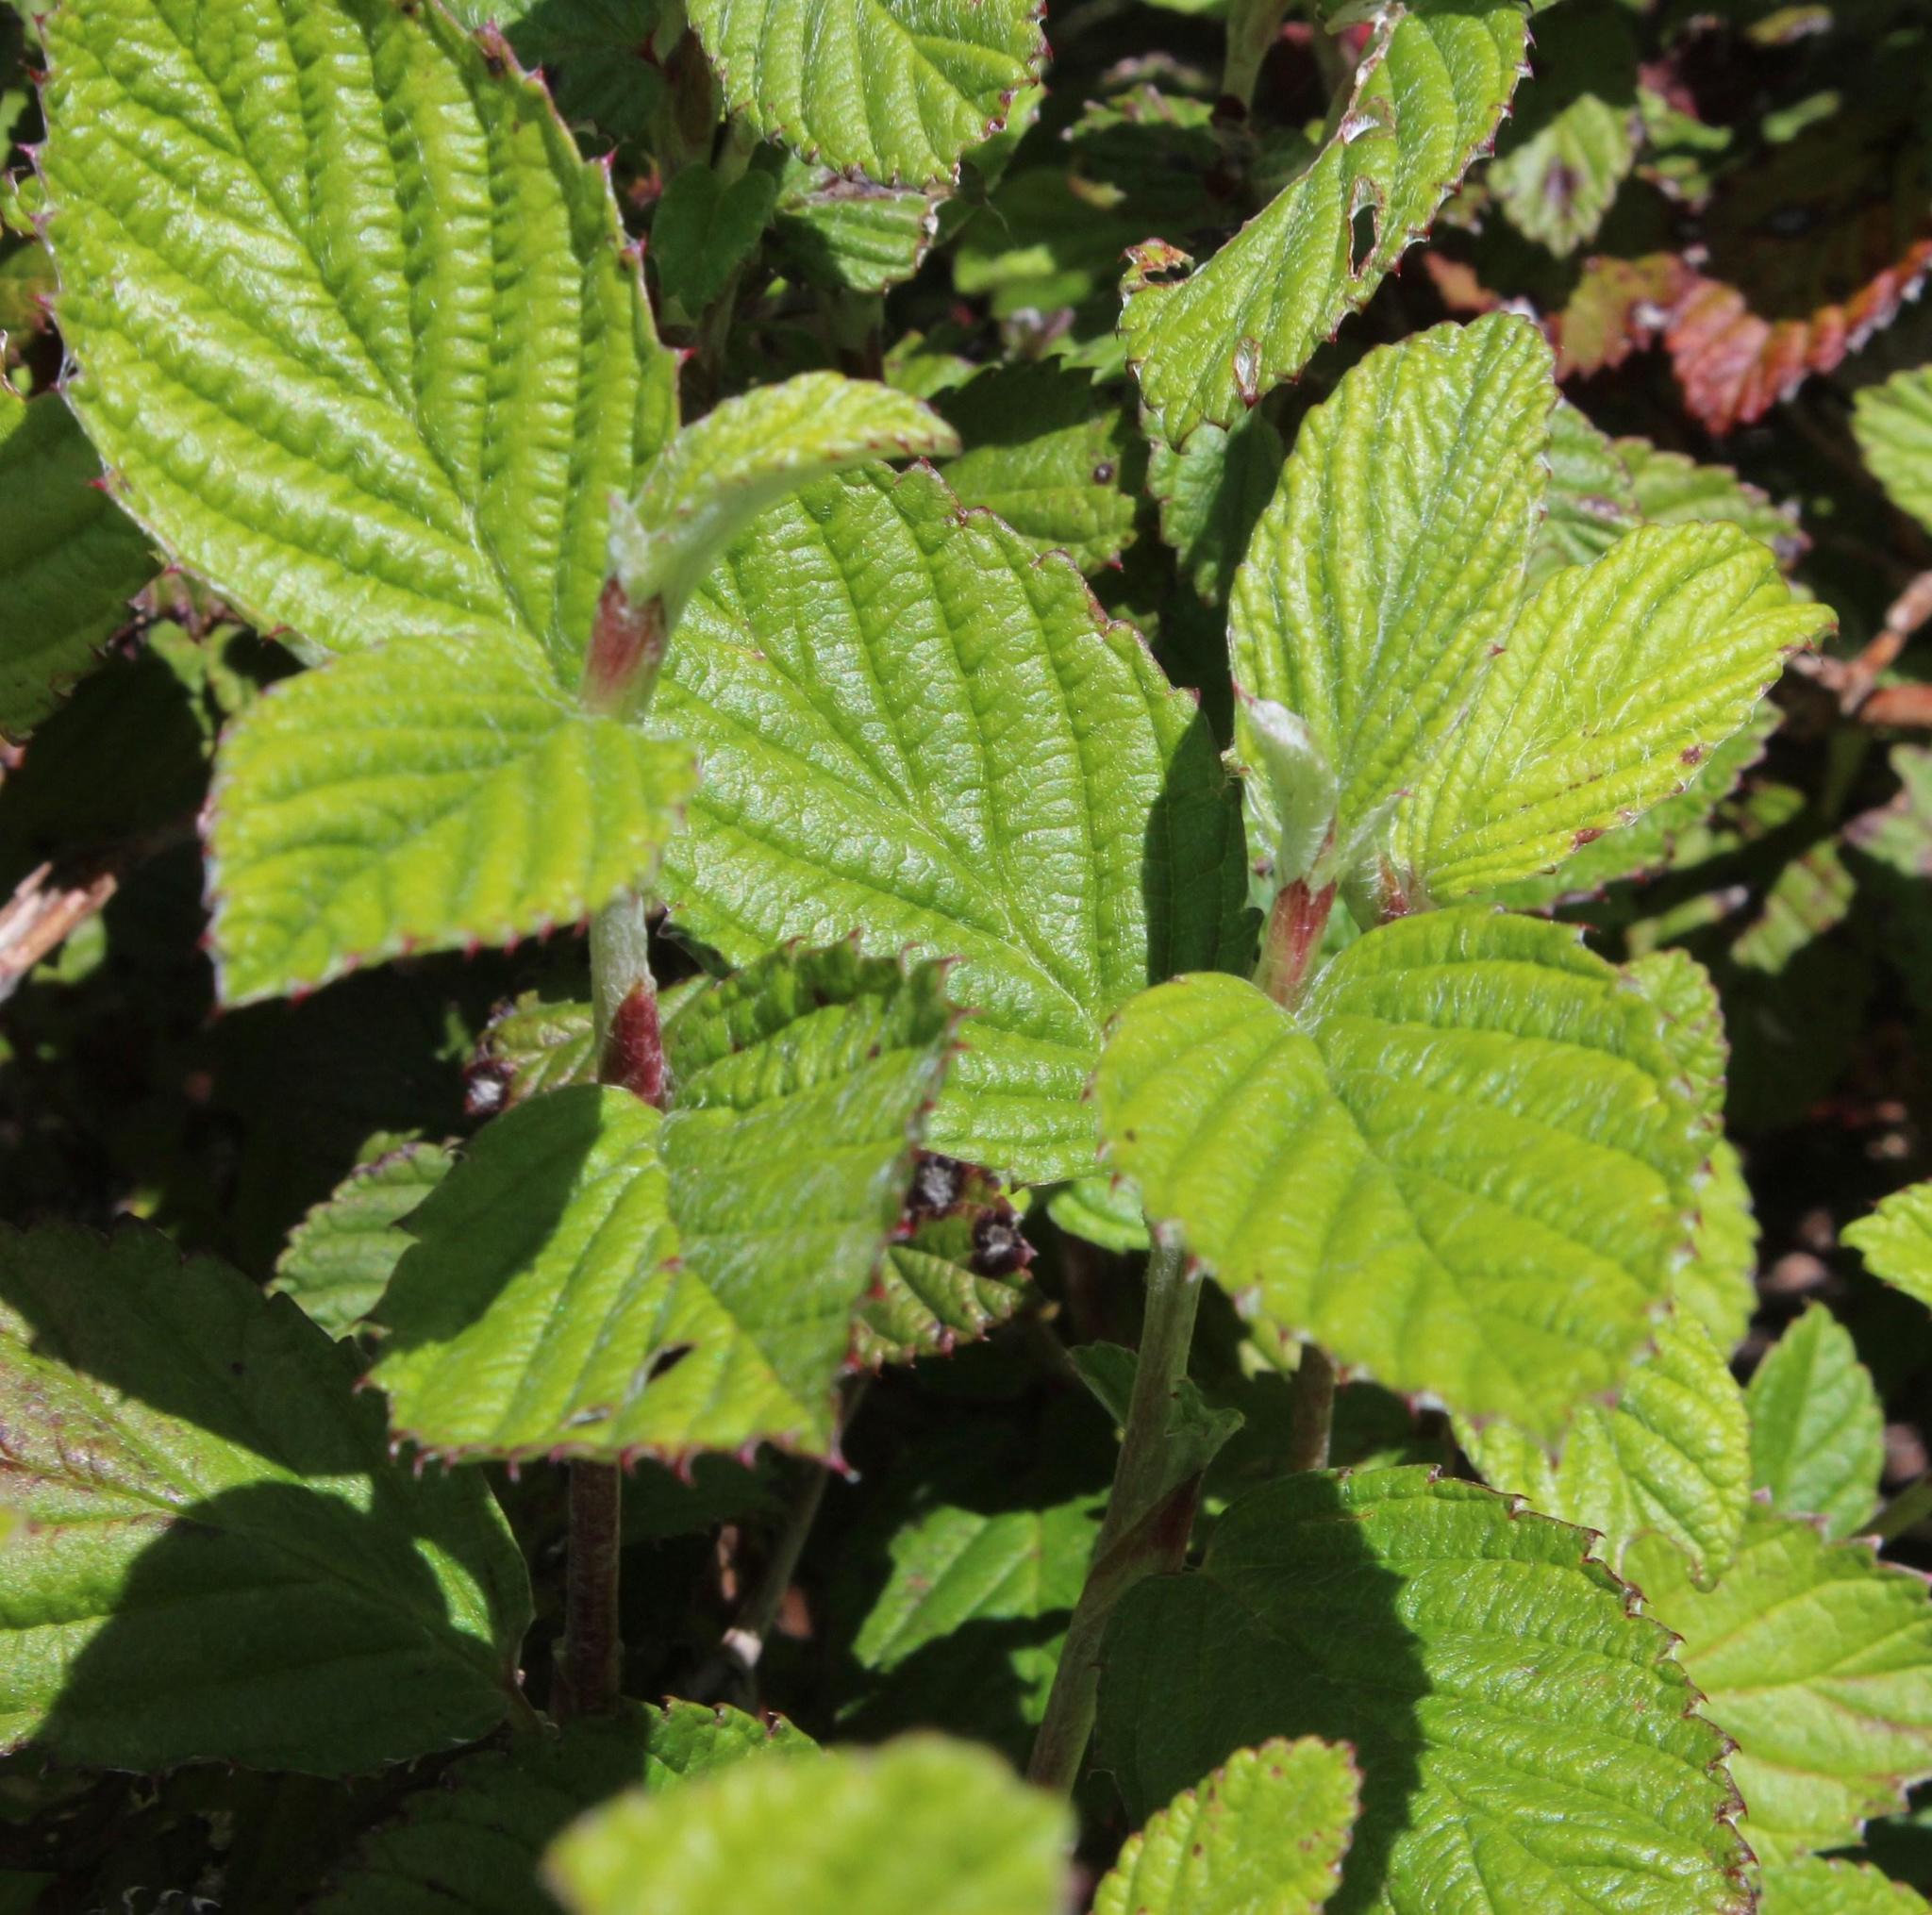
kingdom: Plantae
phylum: Tracheophyta
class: Magnoliopsida
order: Rosales
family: Rosaceae
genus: Cliffortia
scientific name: Cliffortia odorata
